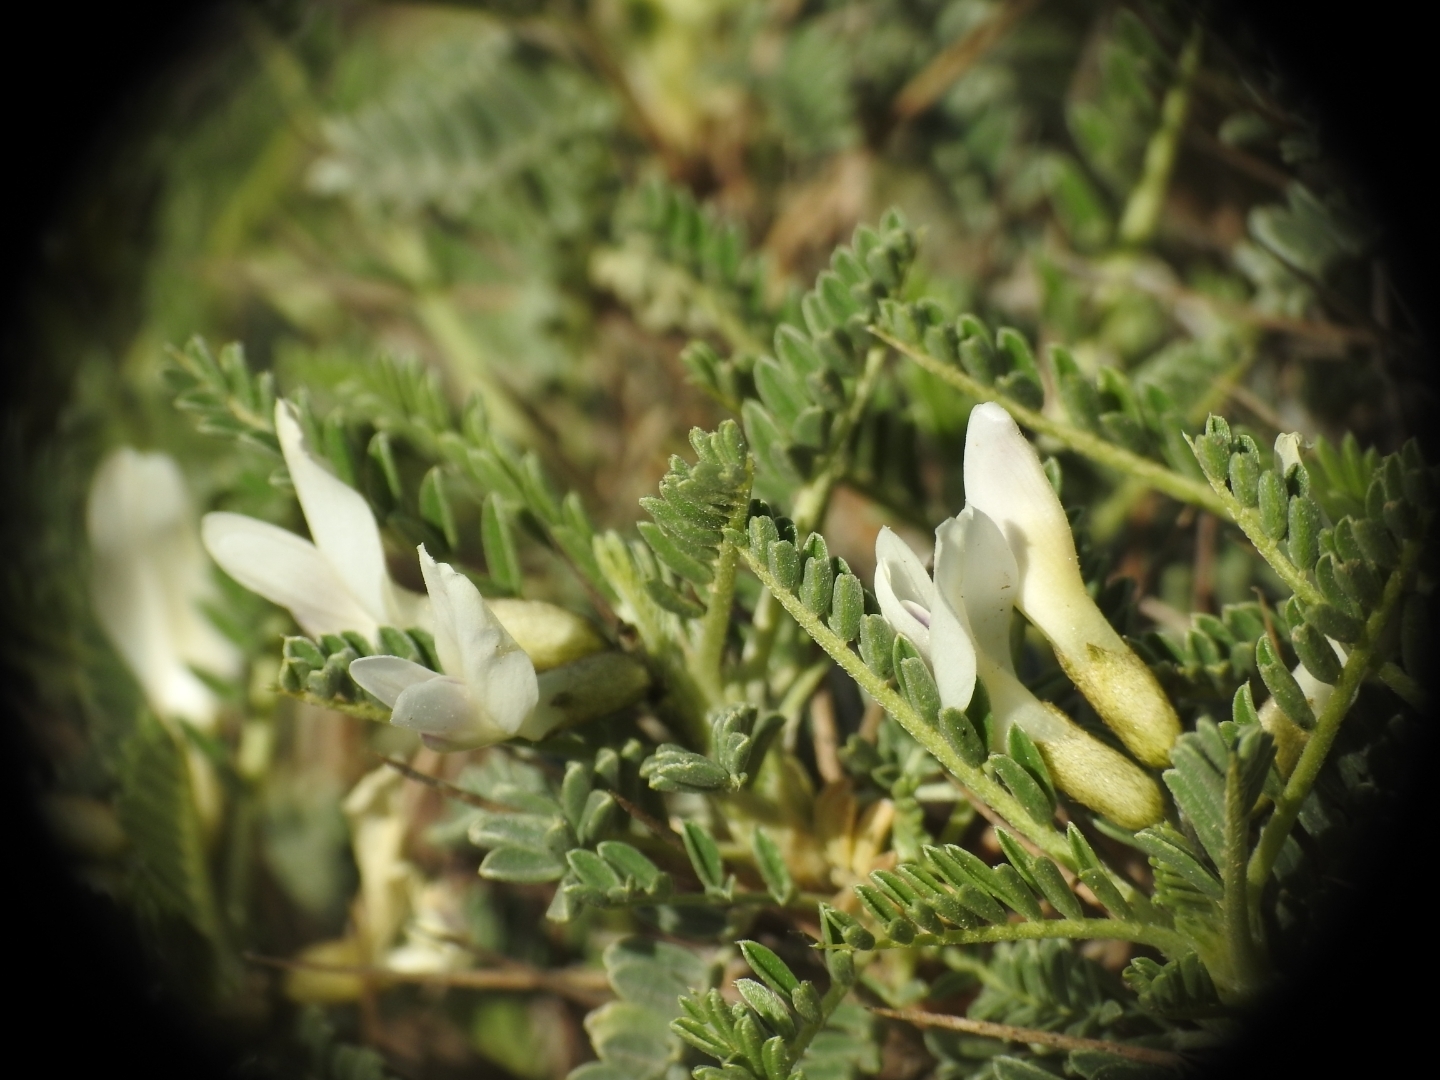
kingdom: Plantae
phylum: Tracheophyta
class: Magnoliopsida
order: Fabales
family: Fabaceae
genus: Astragalus
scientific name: Astragalus tragacantha
